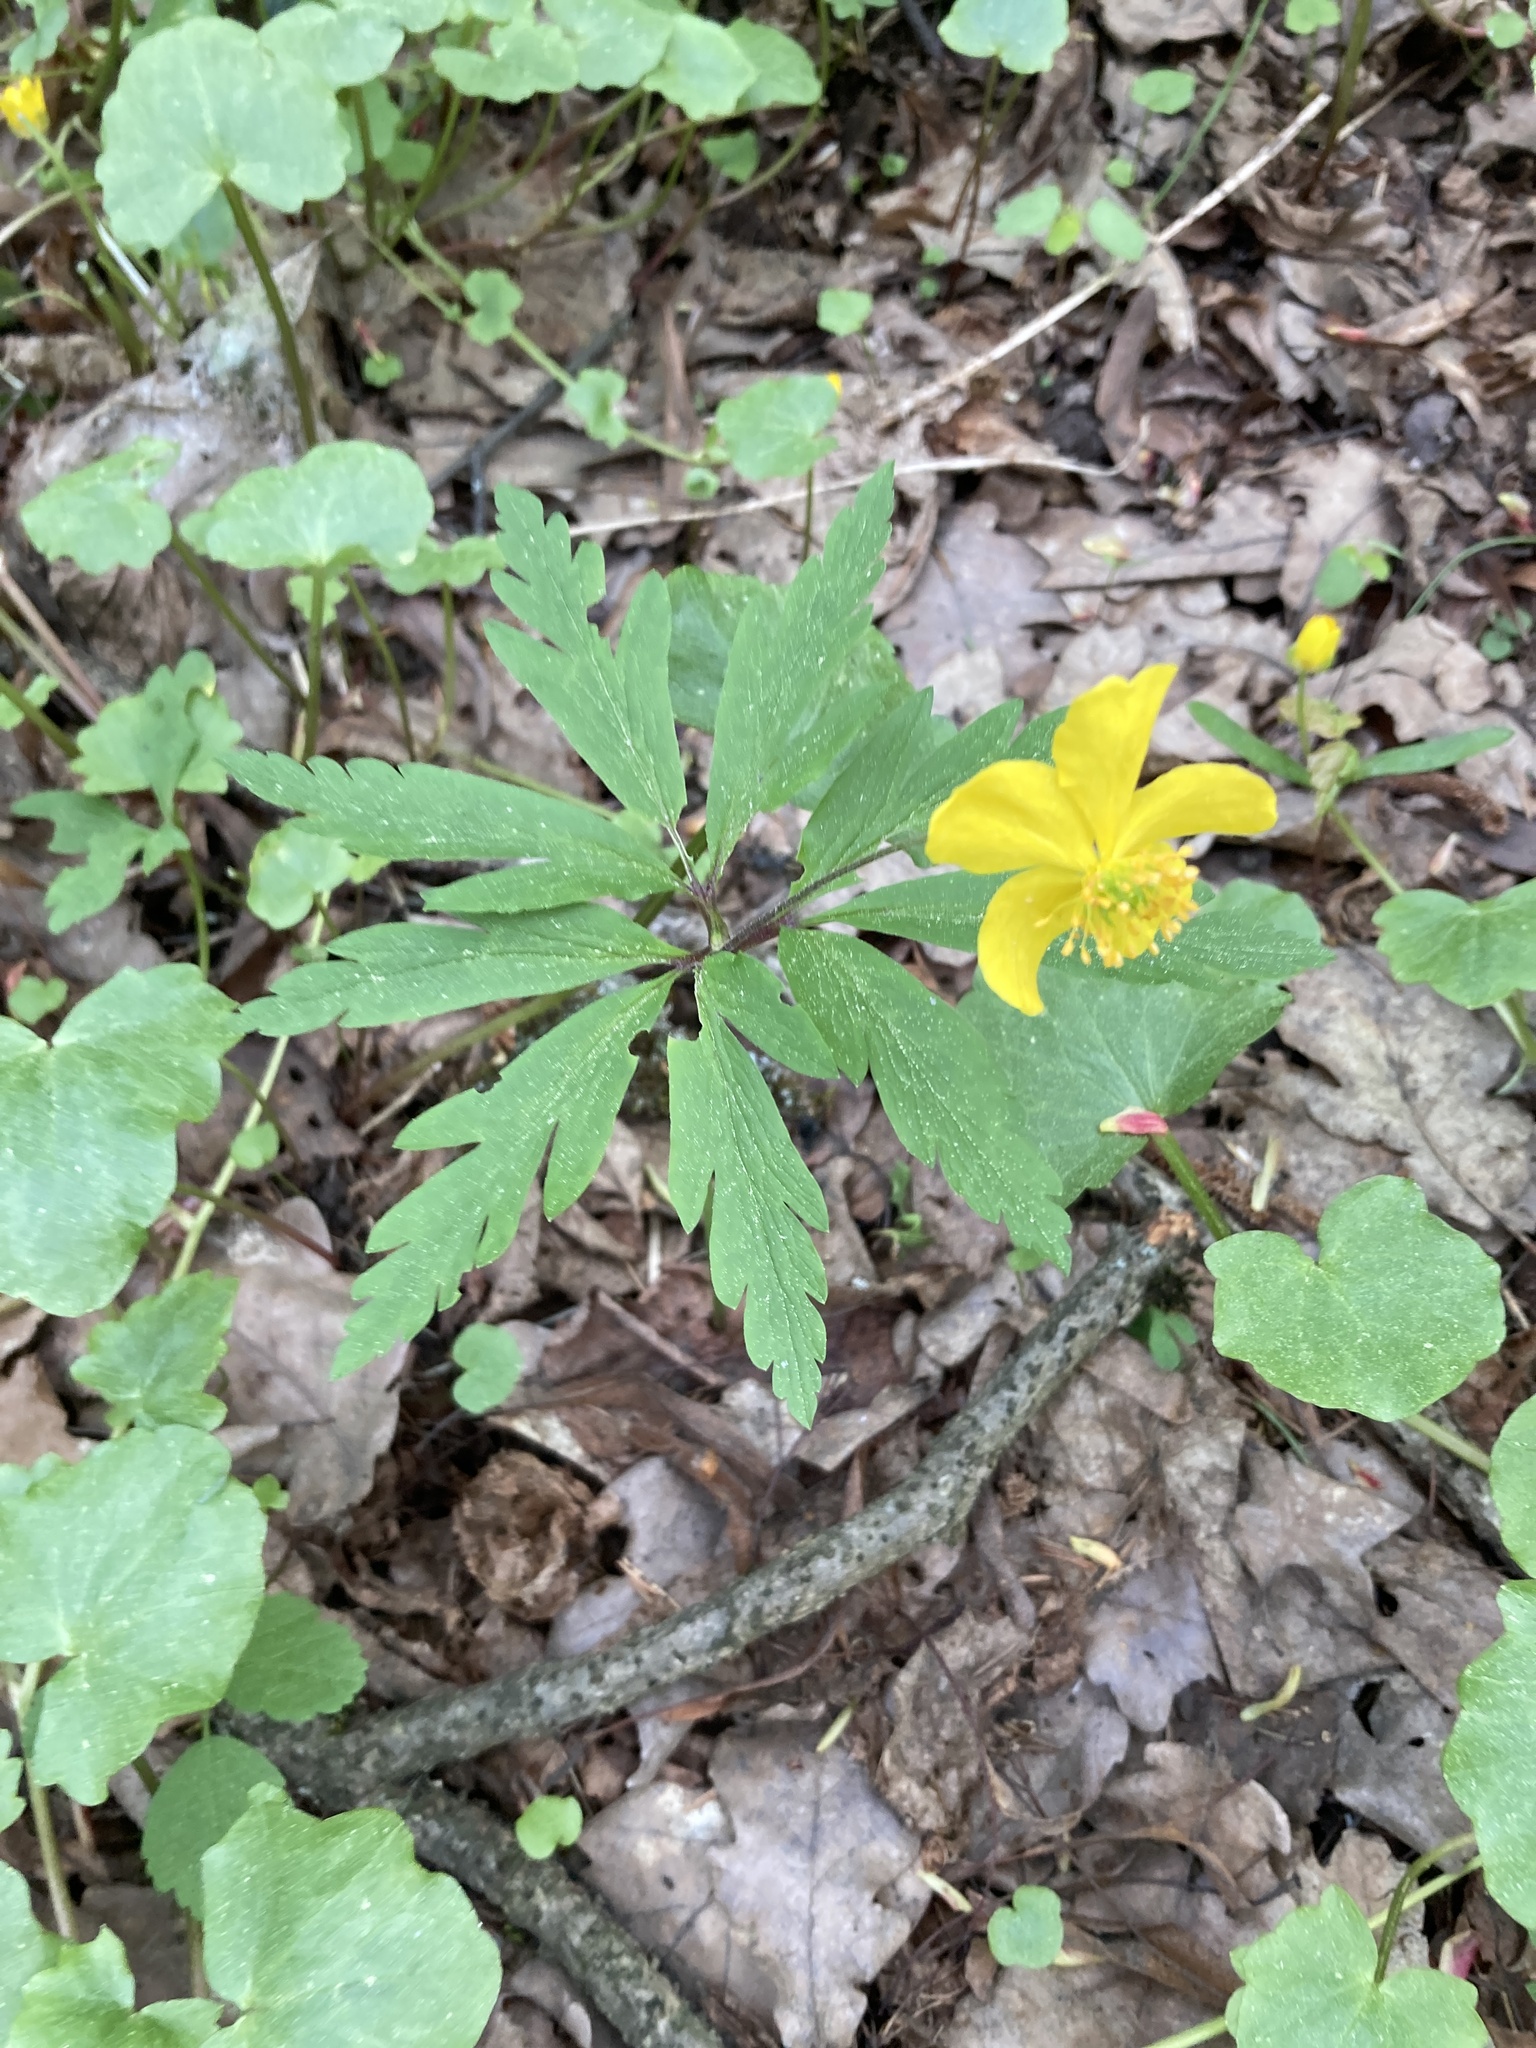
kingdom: Plantae
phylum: Tracheophyta
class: Magnoliopsida
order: Ranunculales
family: Ranunculaceae
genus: Anemone
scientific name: Anemone ranunculoides
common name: Yellow anemone
